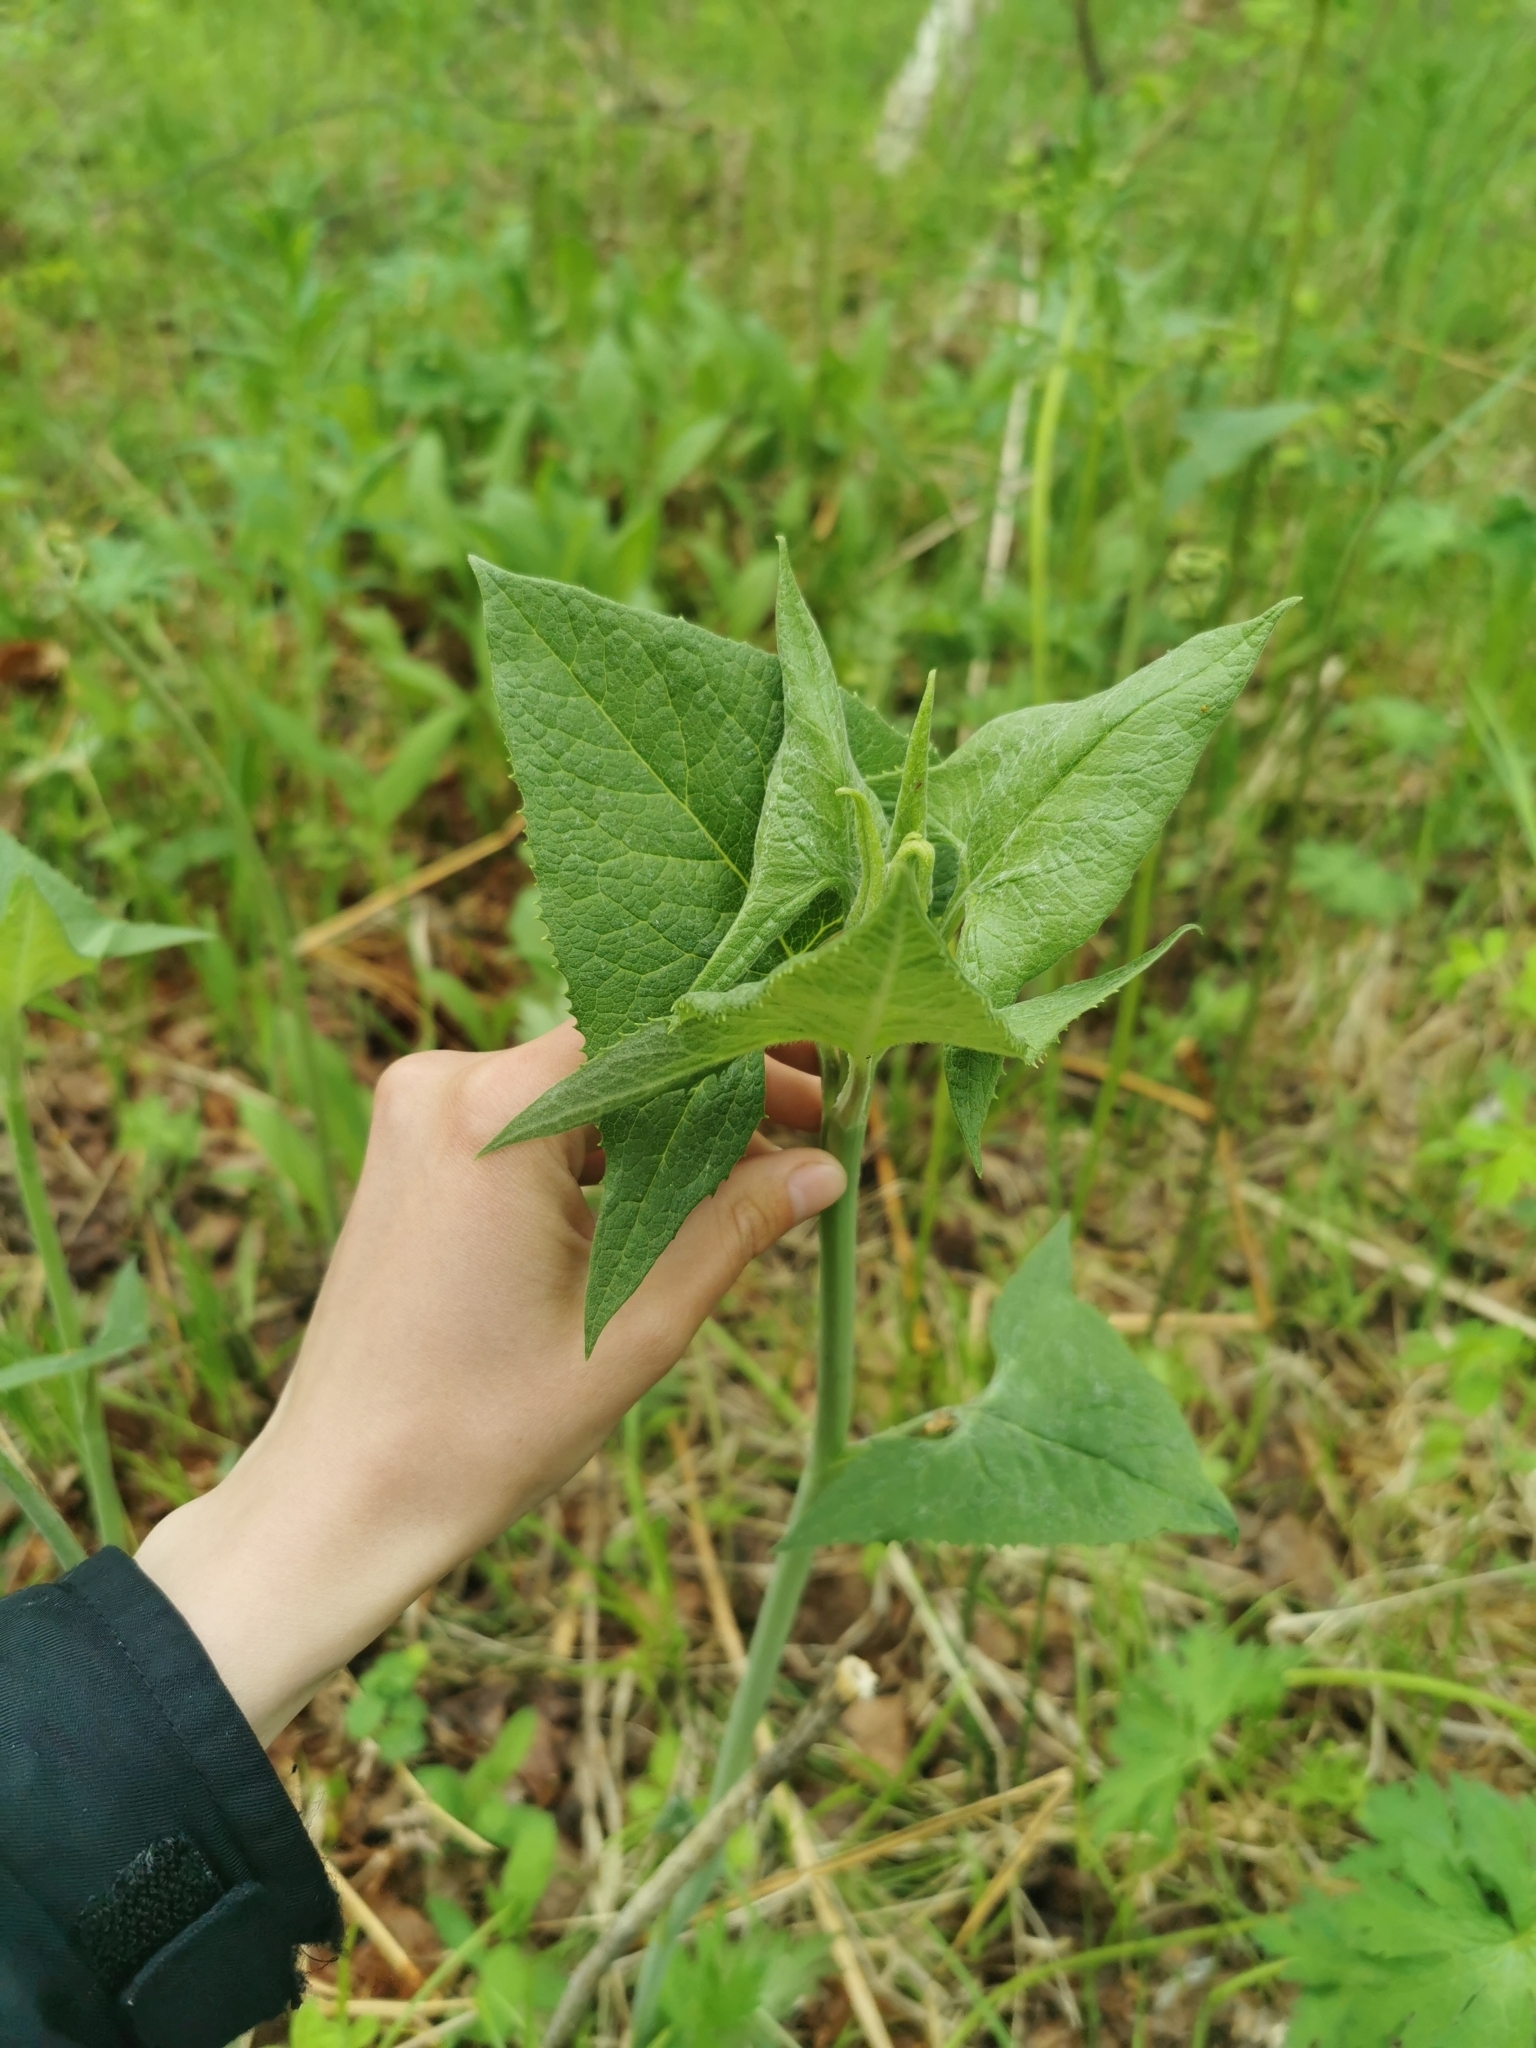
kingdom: Plantae
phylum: Tracheophyta
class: Magnoliopsida
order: Asterales
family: Asteraceae
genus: Parasenecio
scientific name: Parasenecio hastatus
